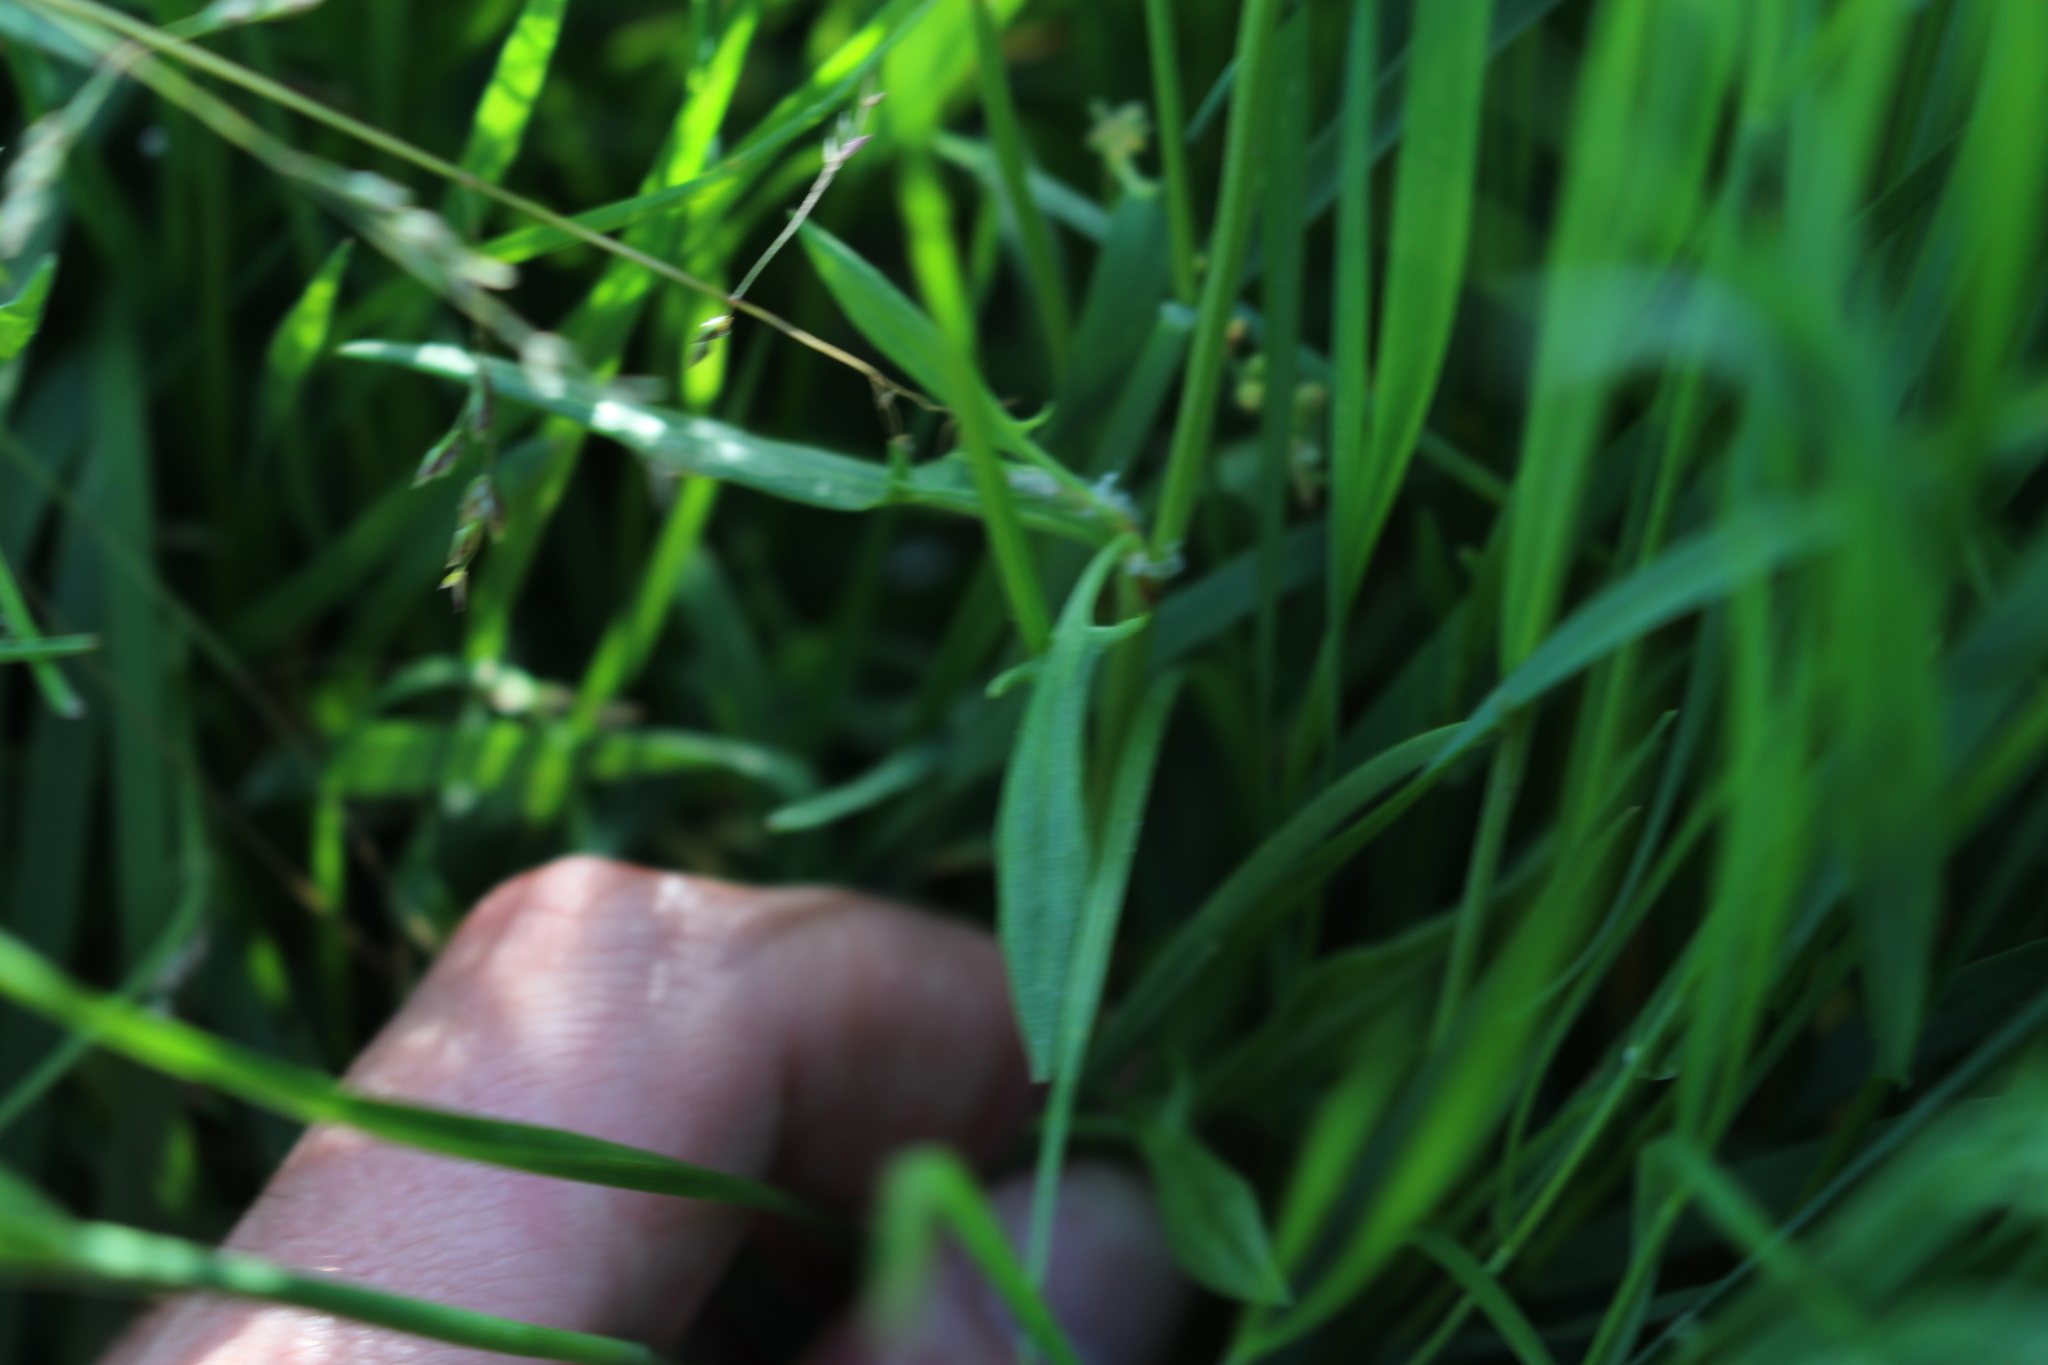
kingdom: Plantae
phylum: Tracheophyta
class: Magnoliopsida
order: Caryophyllales
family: Polygonaceae
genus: Rumex
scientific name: Rumex acetosella
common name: Common sheep sorrel
